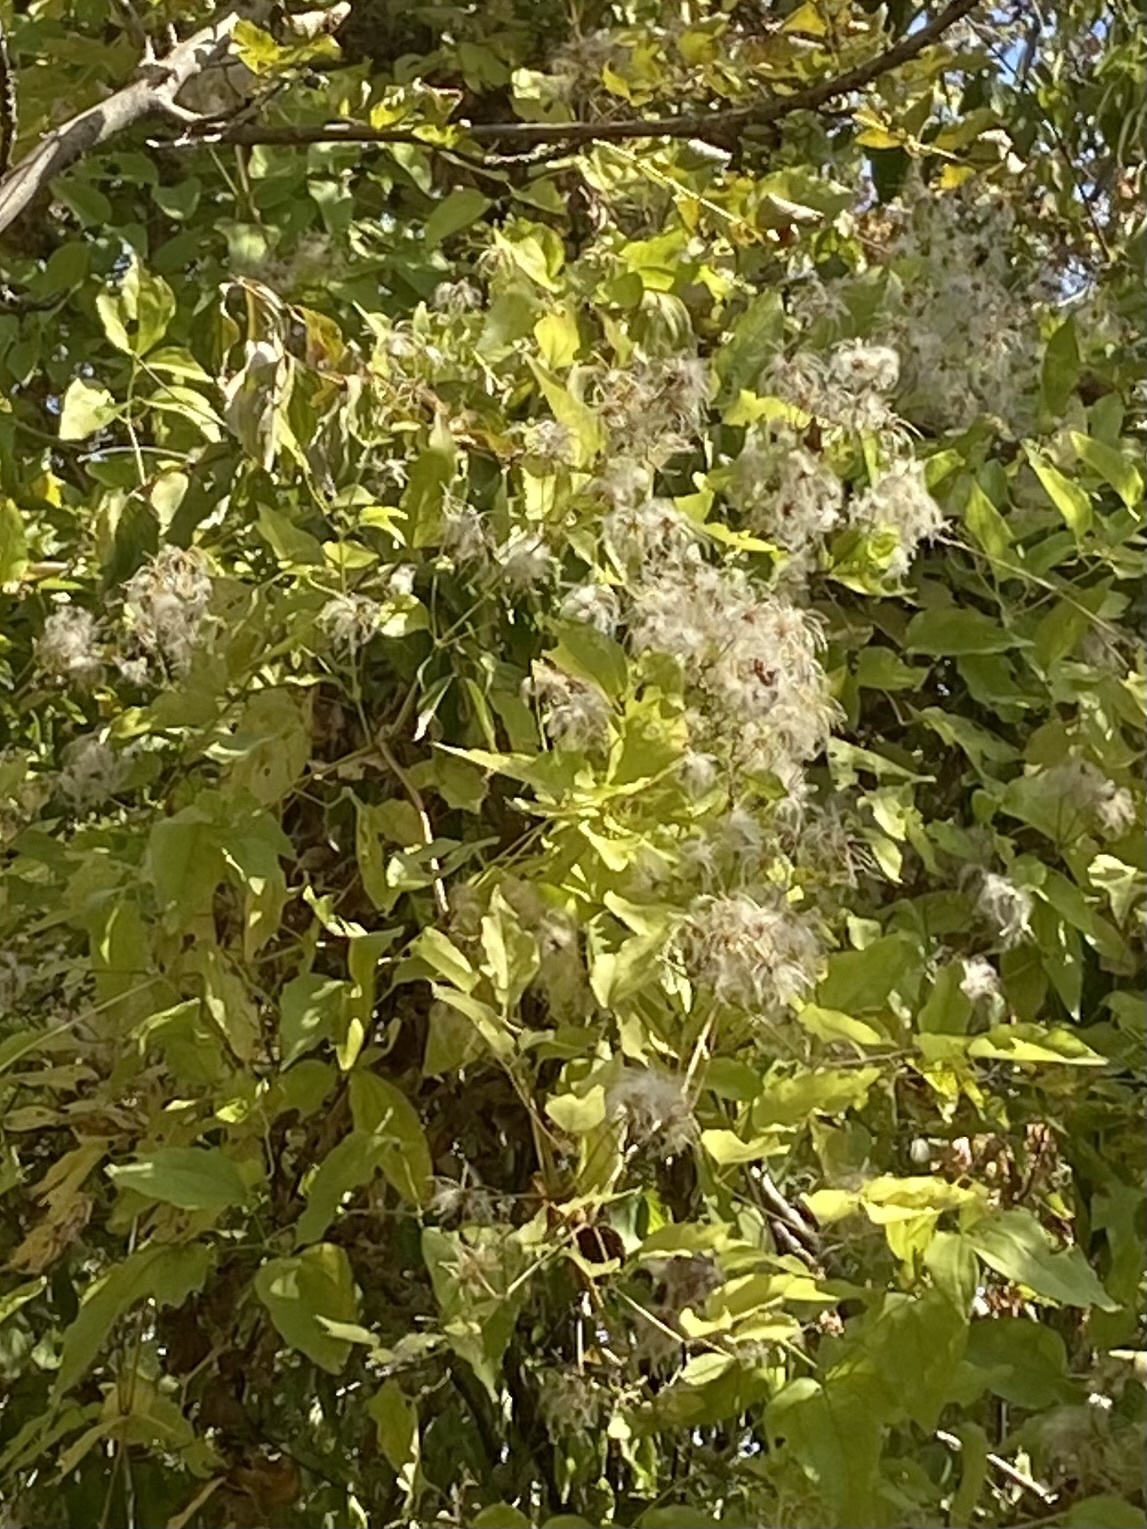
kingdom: Plantae
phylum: Tracheophyta
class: Magnoliopsida
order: Ranunculales
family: Ranunculaceae
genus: Clematis
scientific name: Clematis vitalba
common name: Evergreen clematis
